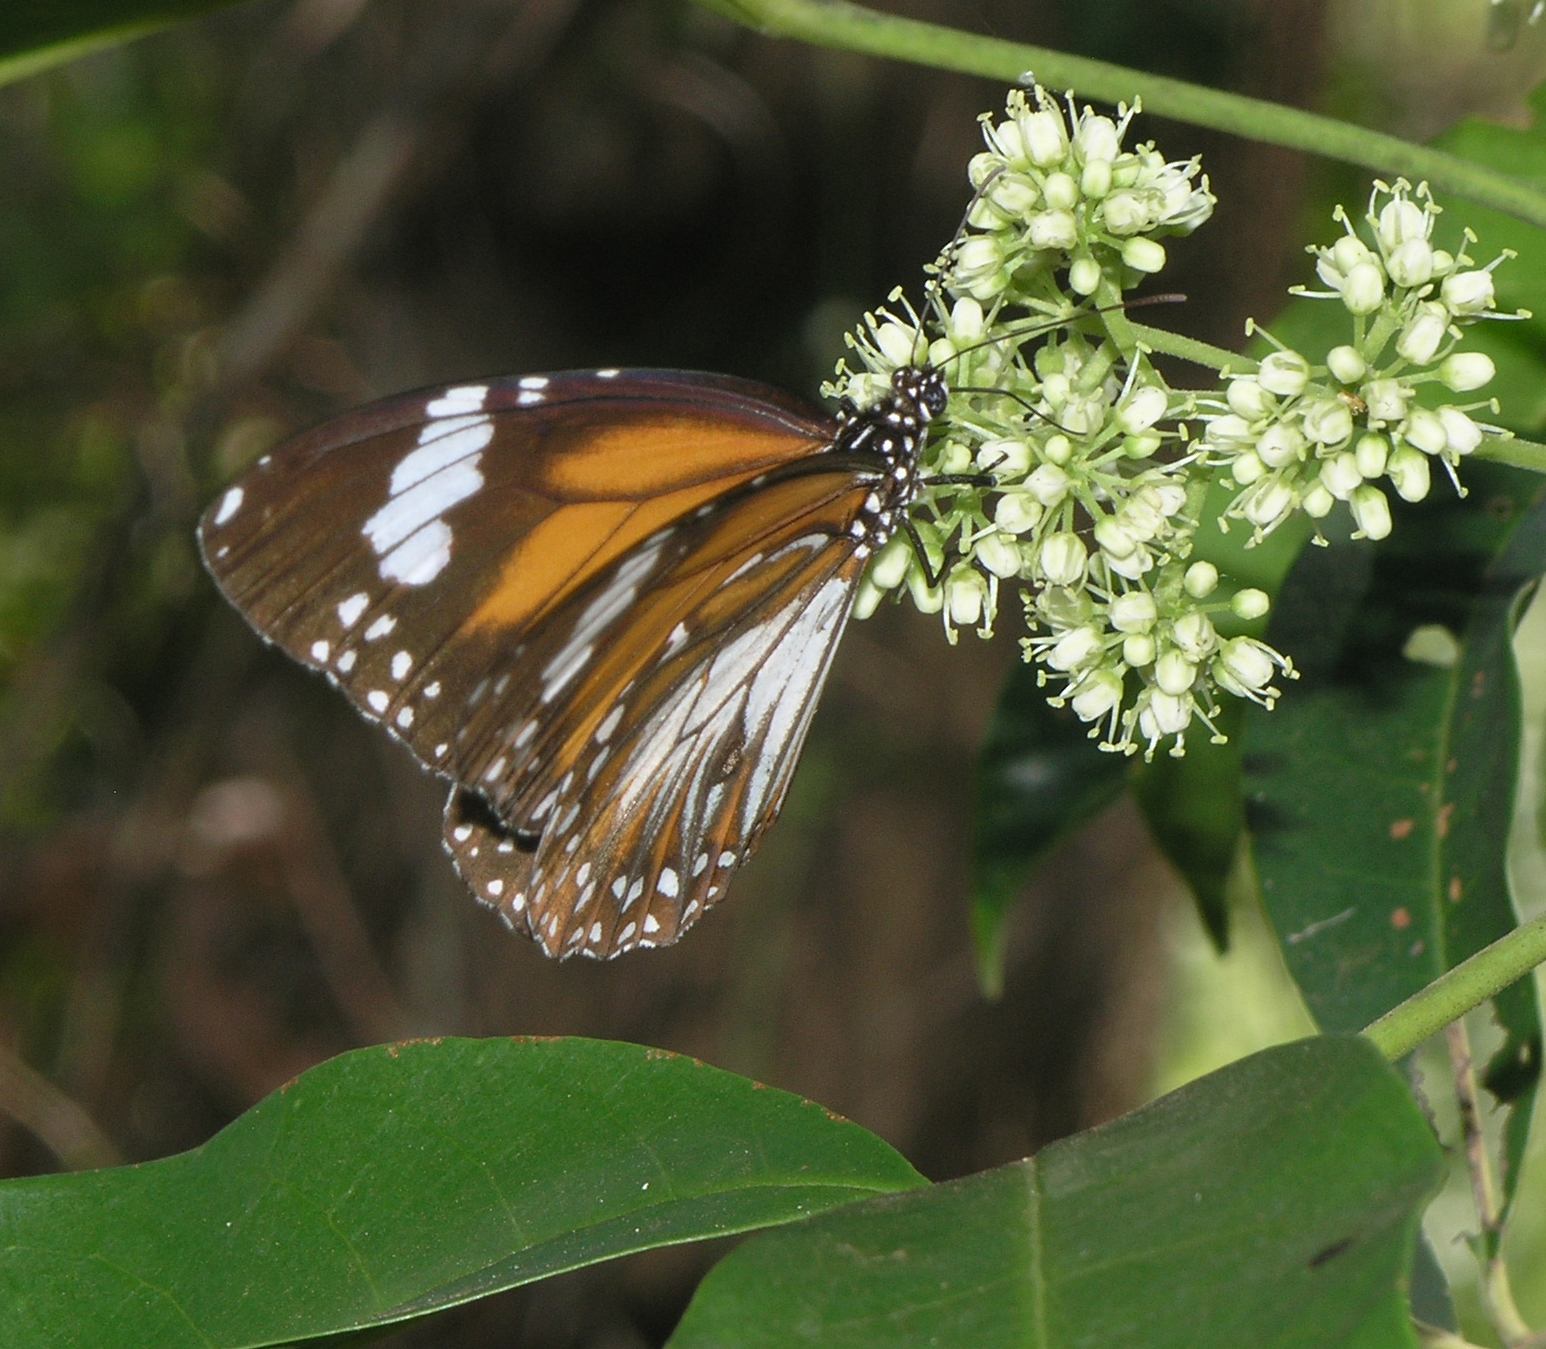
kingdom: Animalia
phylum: Arthropoda
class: Insecta
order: Lepidoptera
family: Nymphalidae
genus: Danaus
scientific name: Danaus affinis
